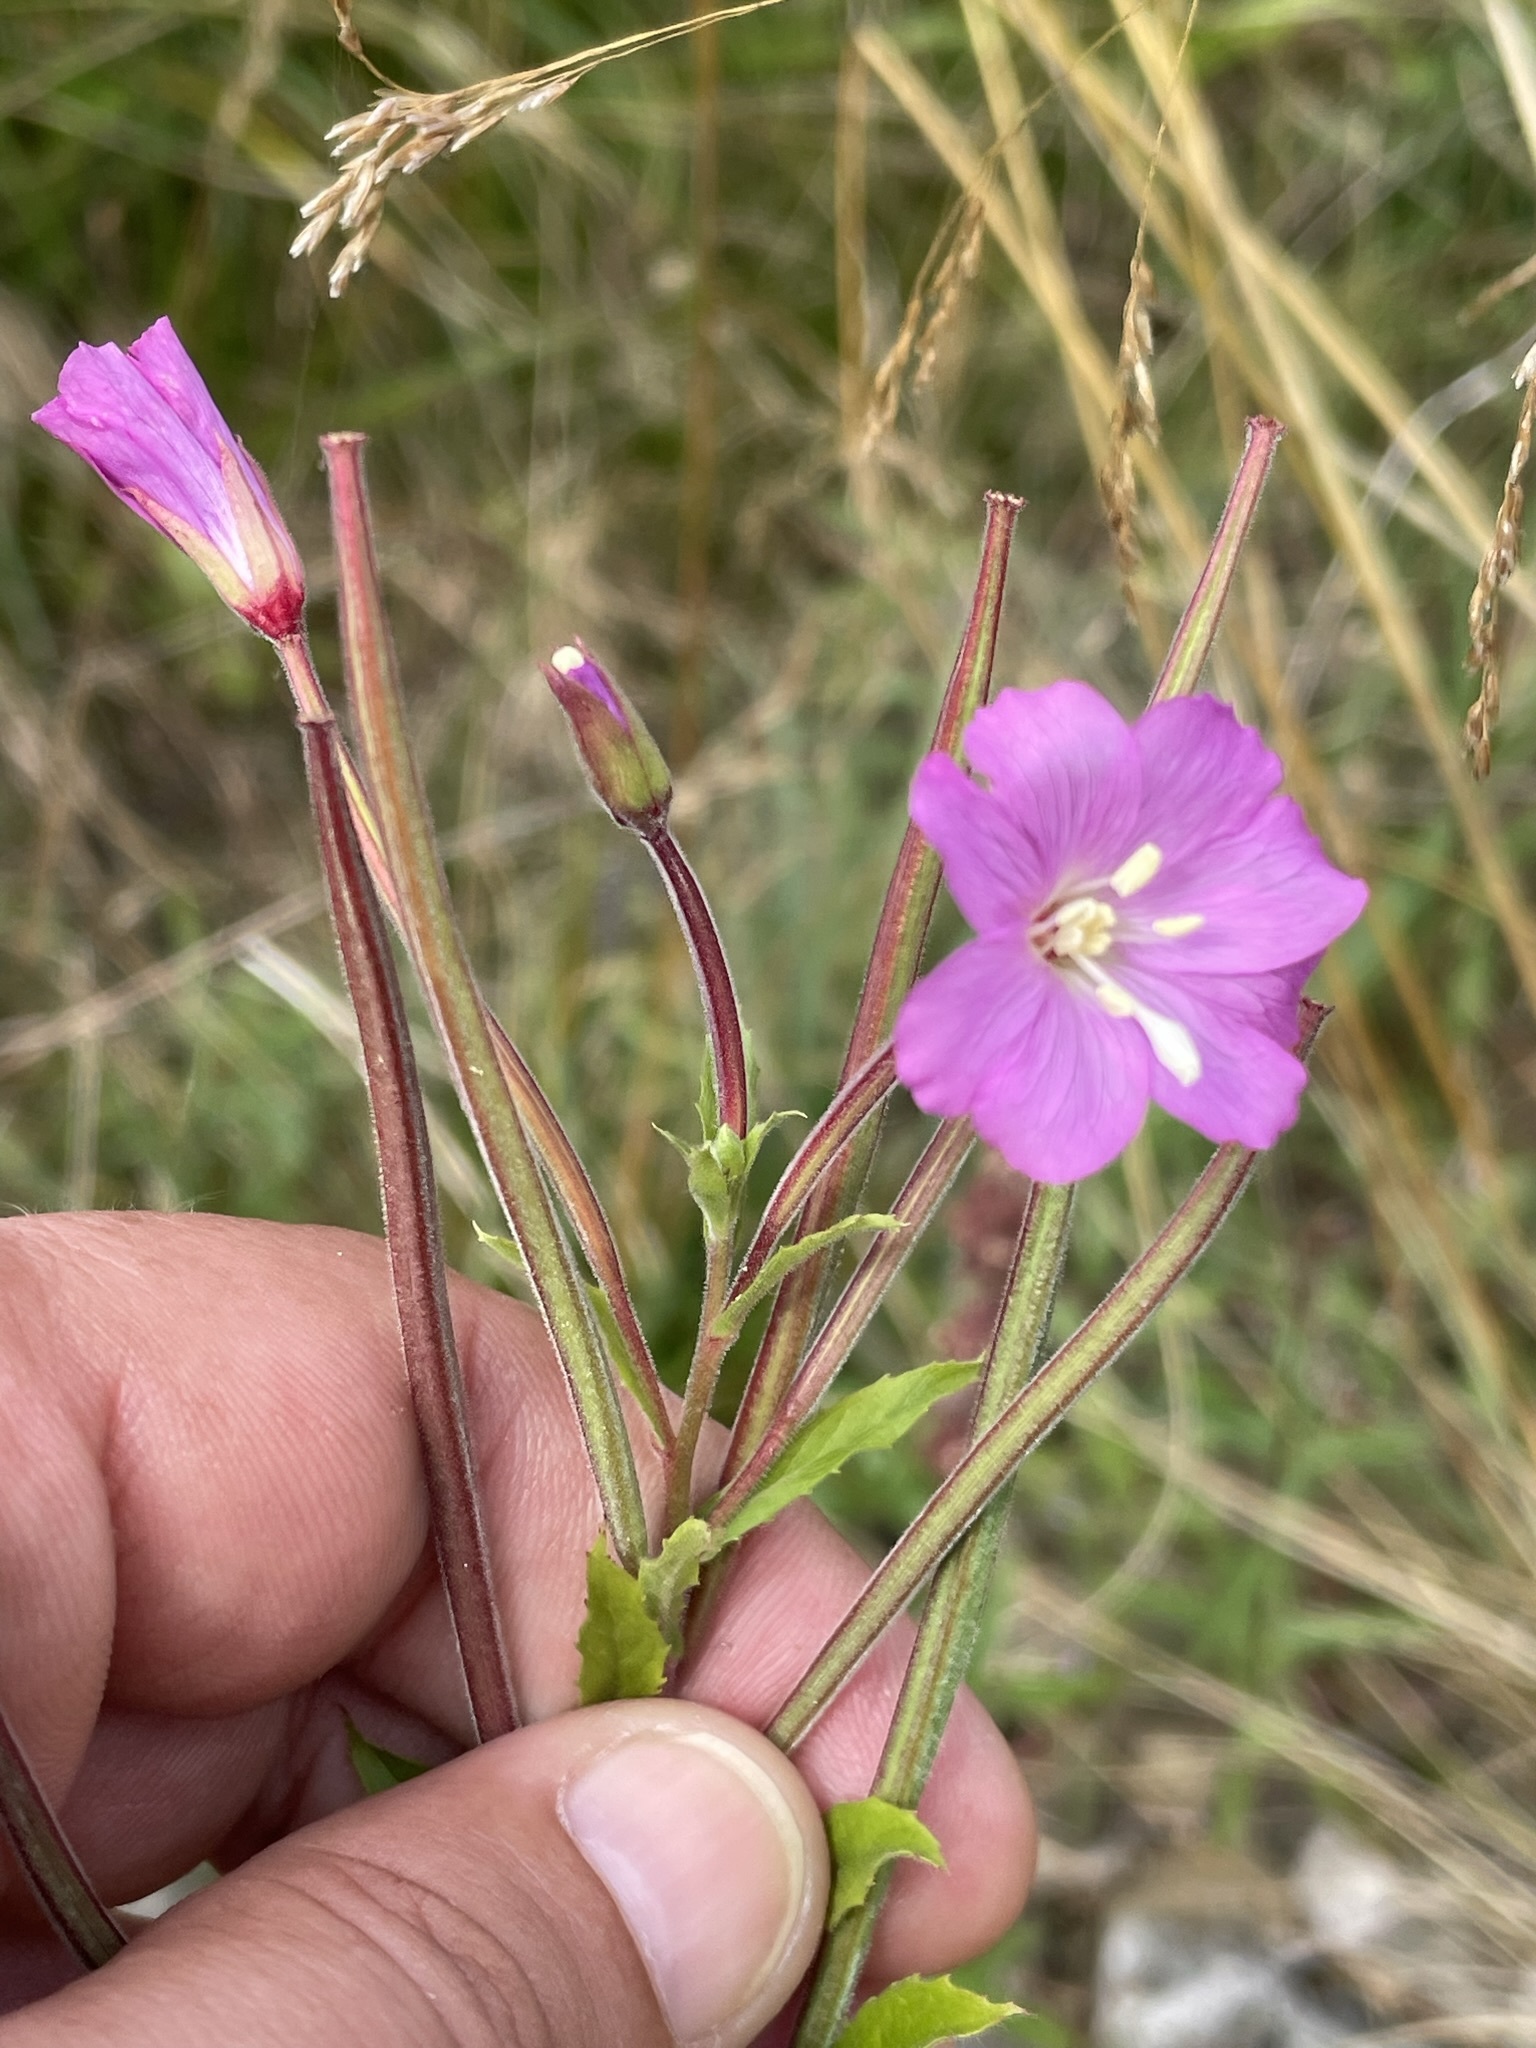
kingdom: Plantae
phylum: Tracheophyta
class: Magnoliopsida
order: Myrtales
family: Onagraceae
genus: Epilobium
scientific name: Epilobium hirsutum
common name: Great willowherb
